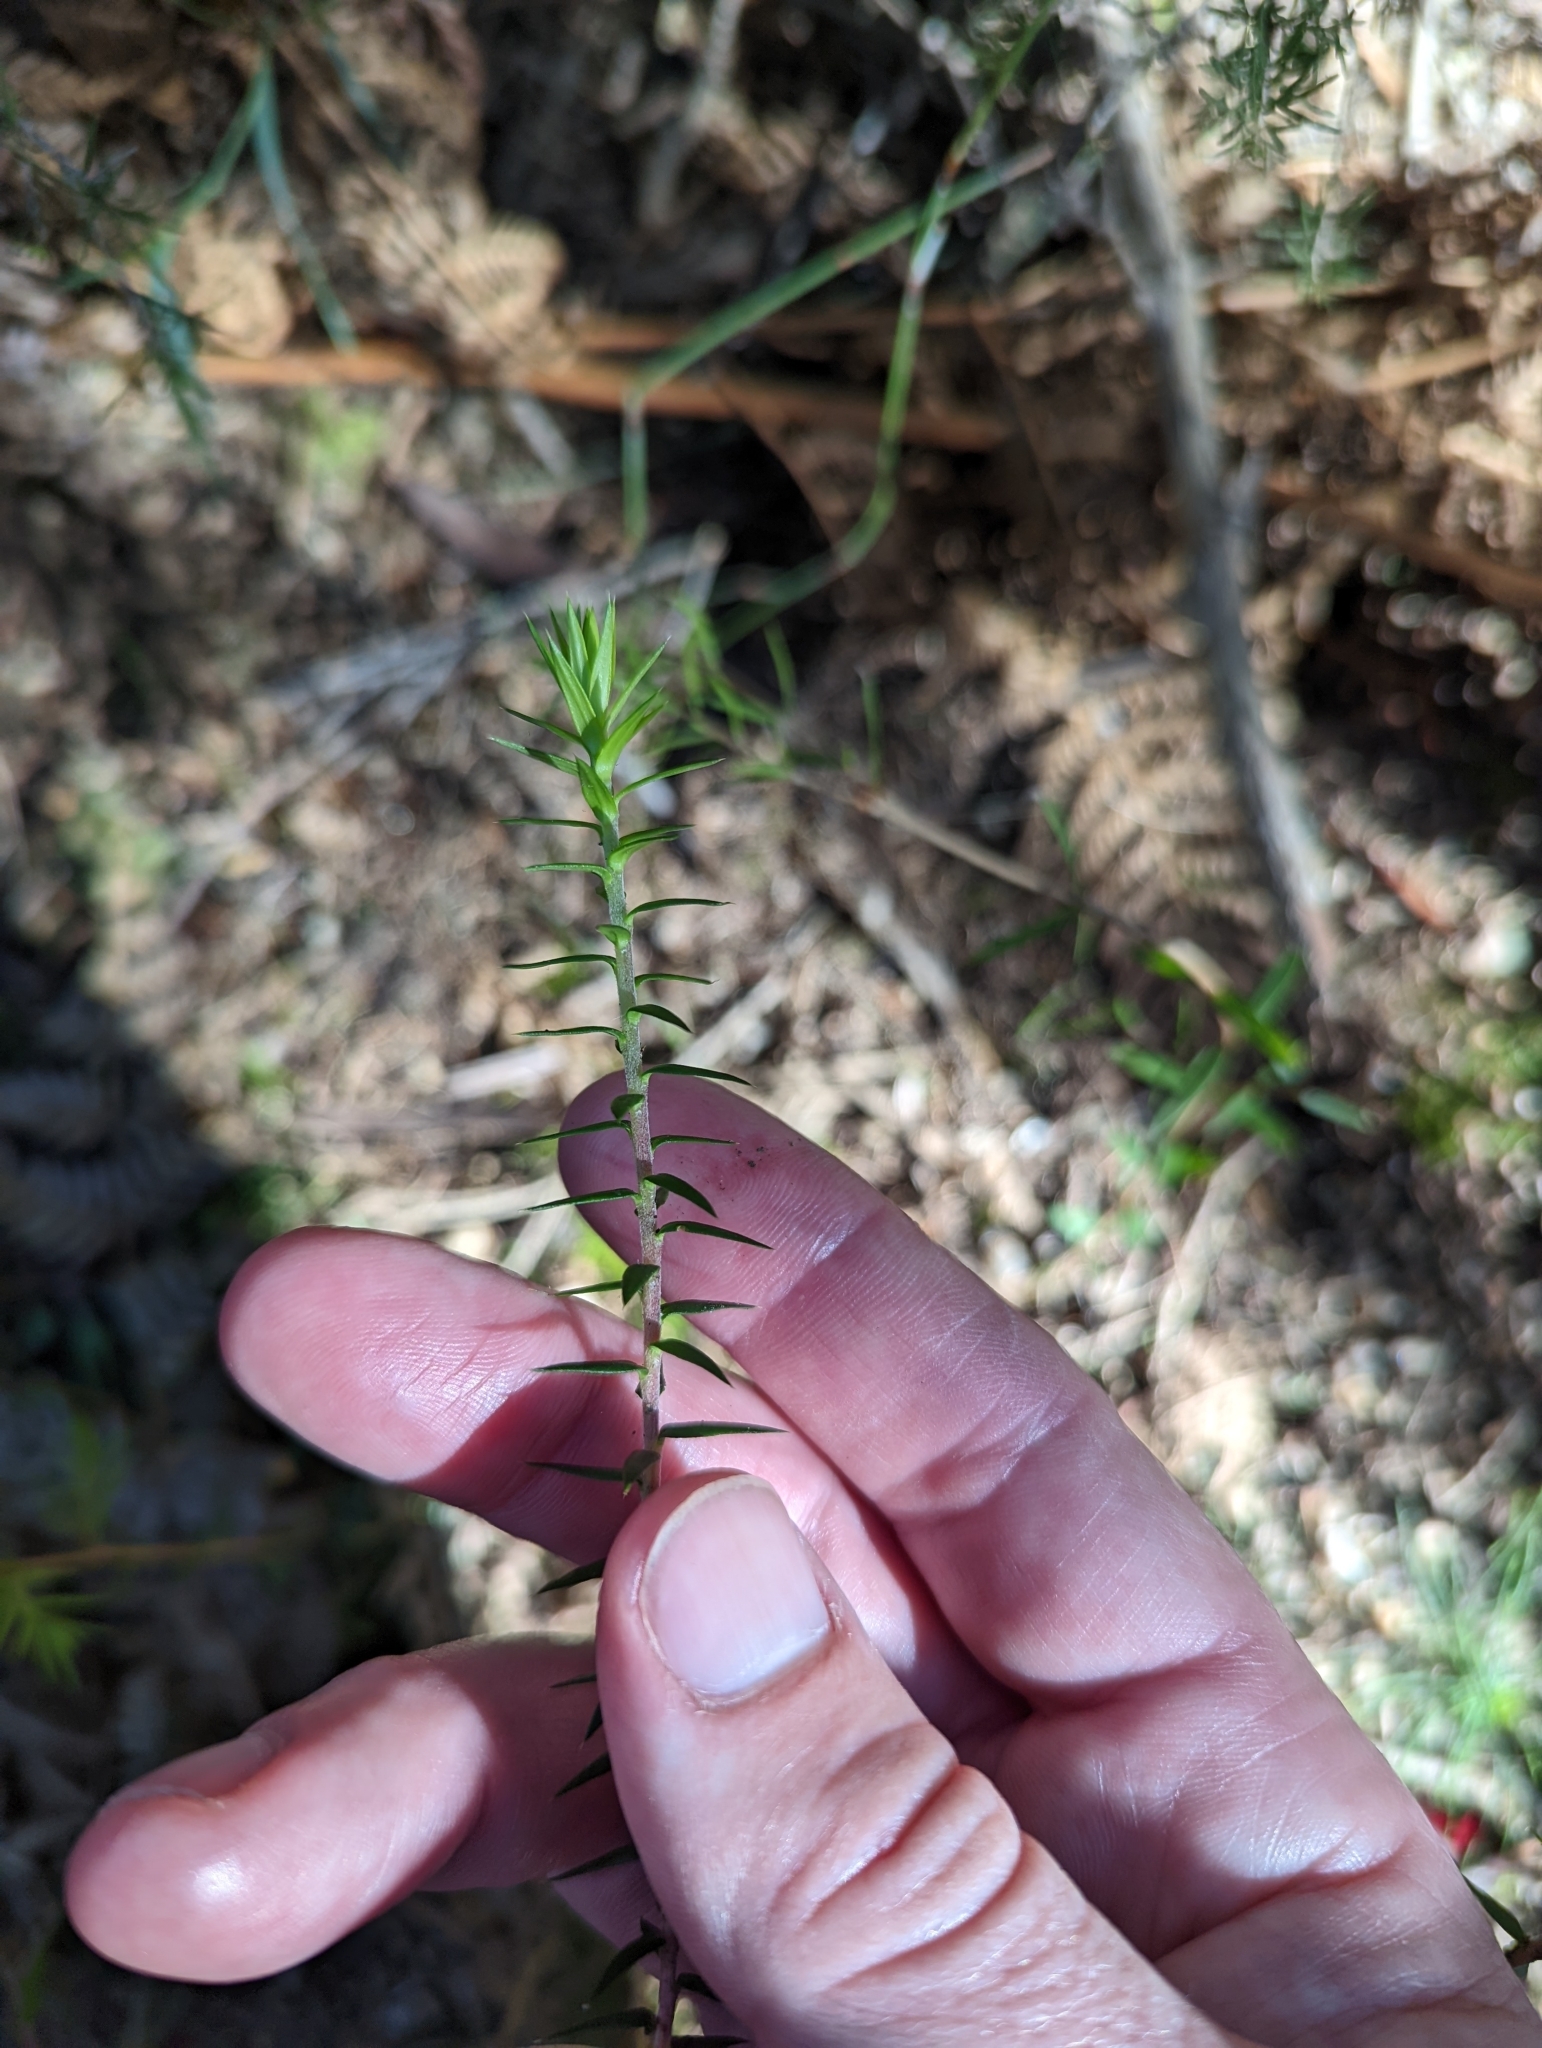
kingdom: Plantae
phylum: Tracheophyta
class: Magnoliopsida
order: Ericales
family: Ericaceae
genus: Epacris
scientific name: Epacris impressa
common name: Common-heath
